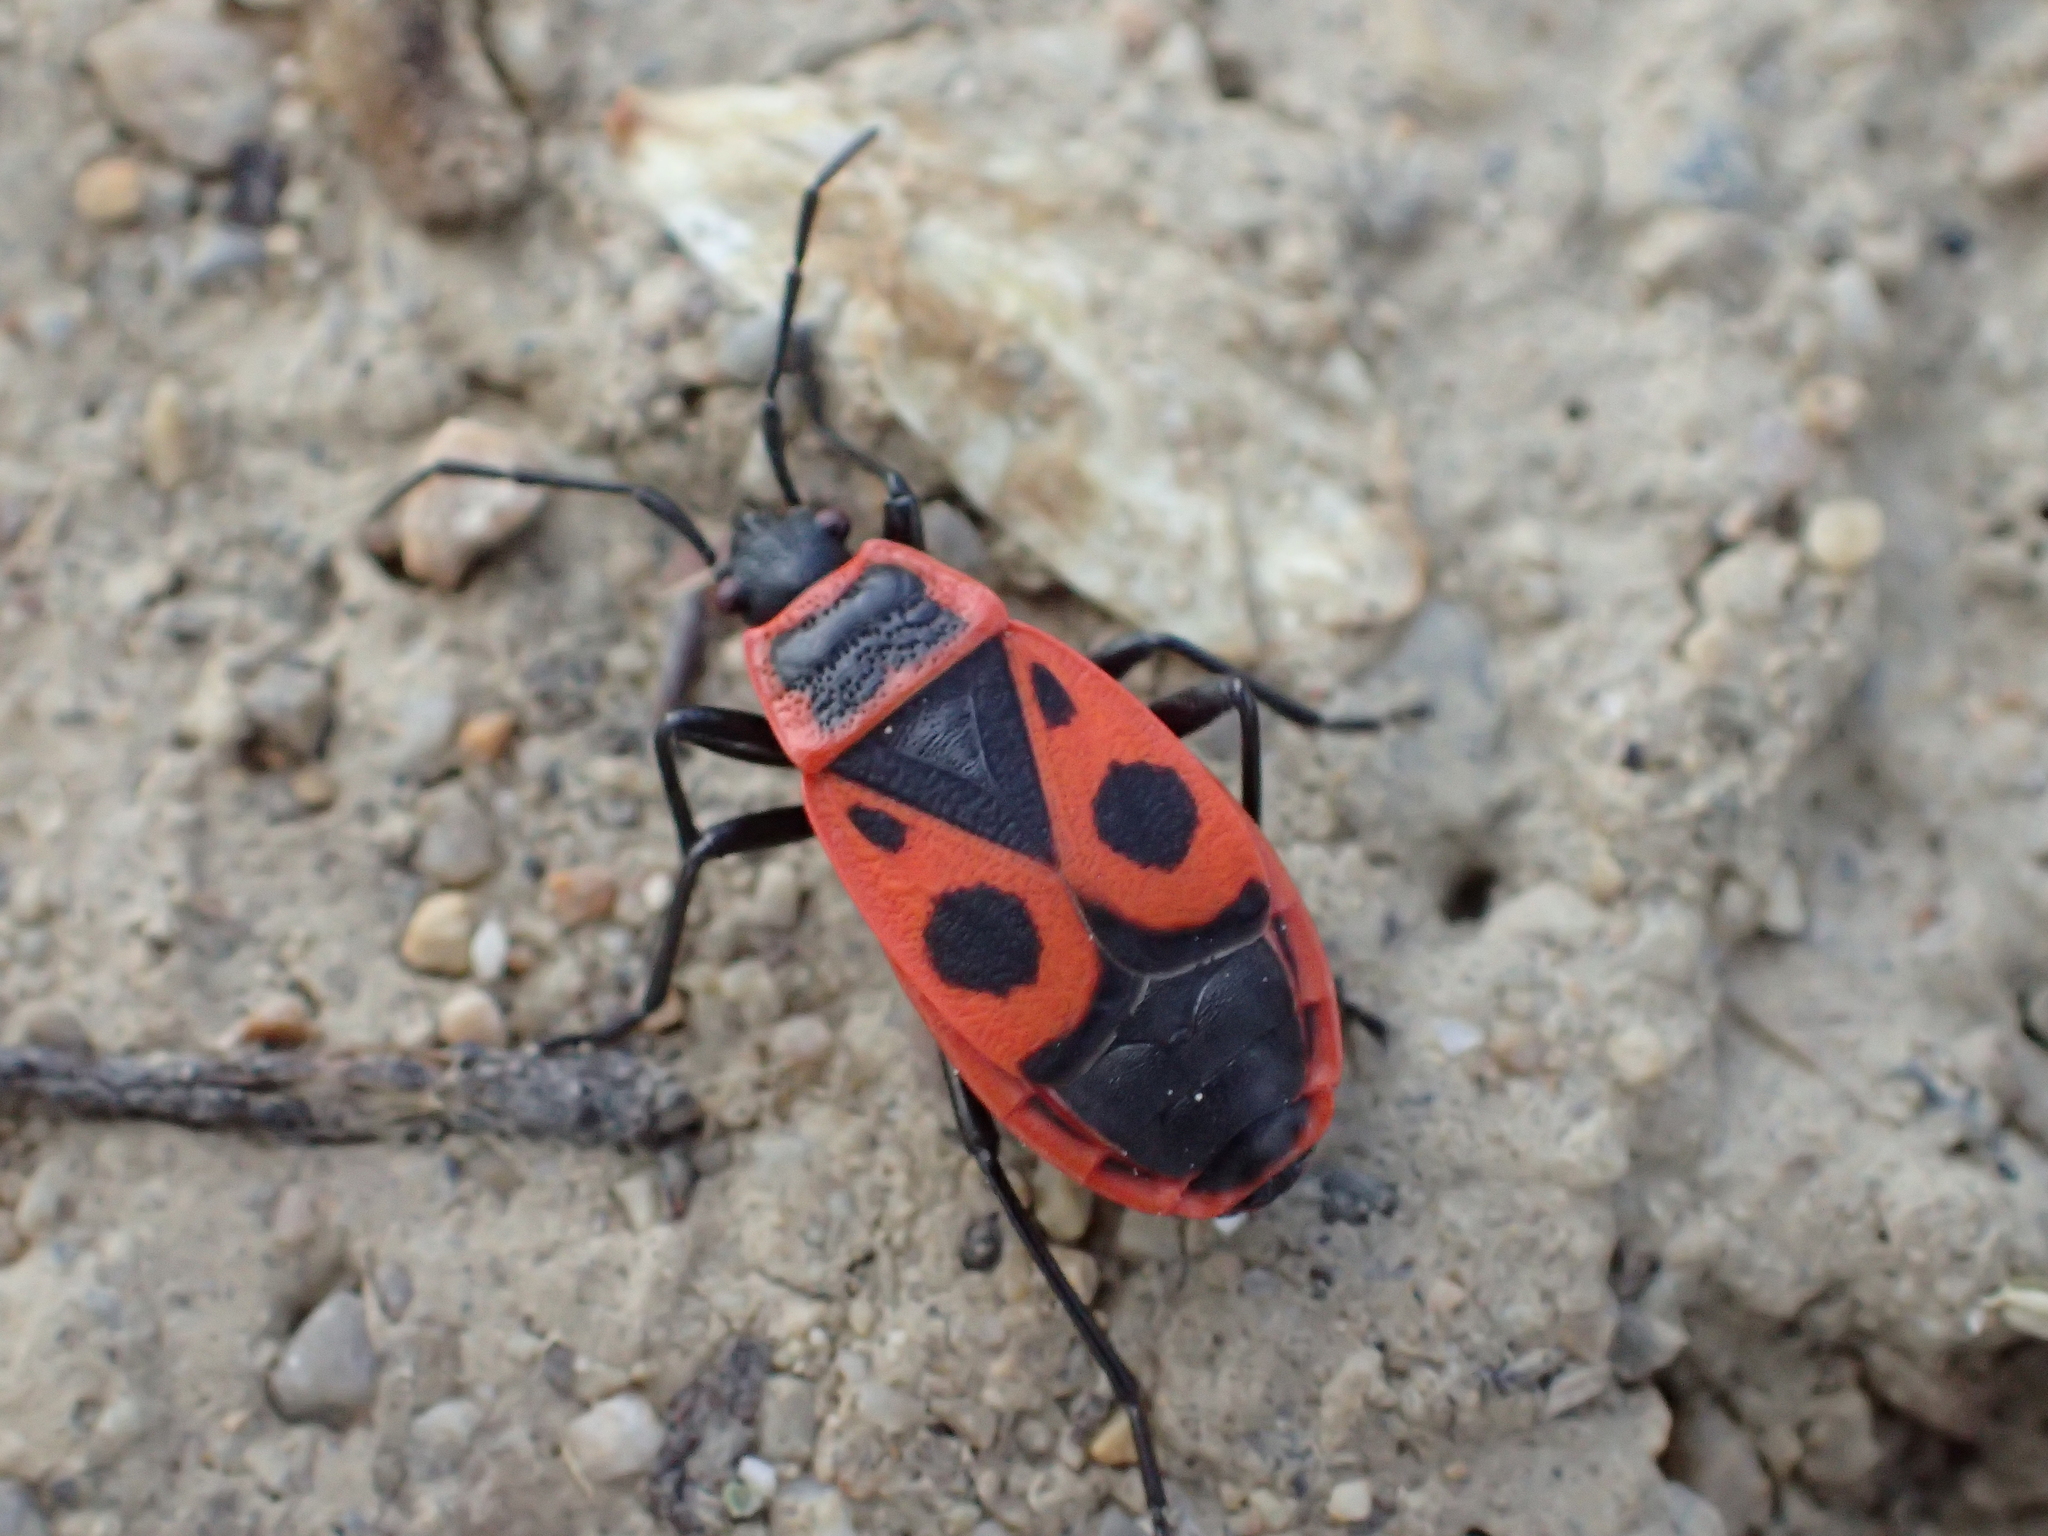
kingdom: Animalia
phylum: Arthropoda
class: Insecta
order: Hemiptera
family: Pyrrhocoridae
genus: Pyrrhocoris
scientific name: Pyrrhocoris apterus
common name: Firebug
